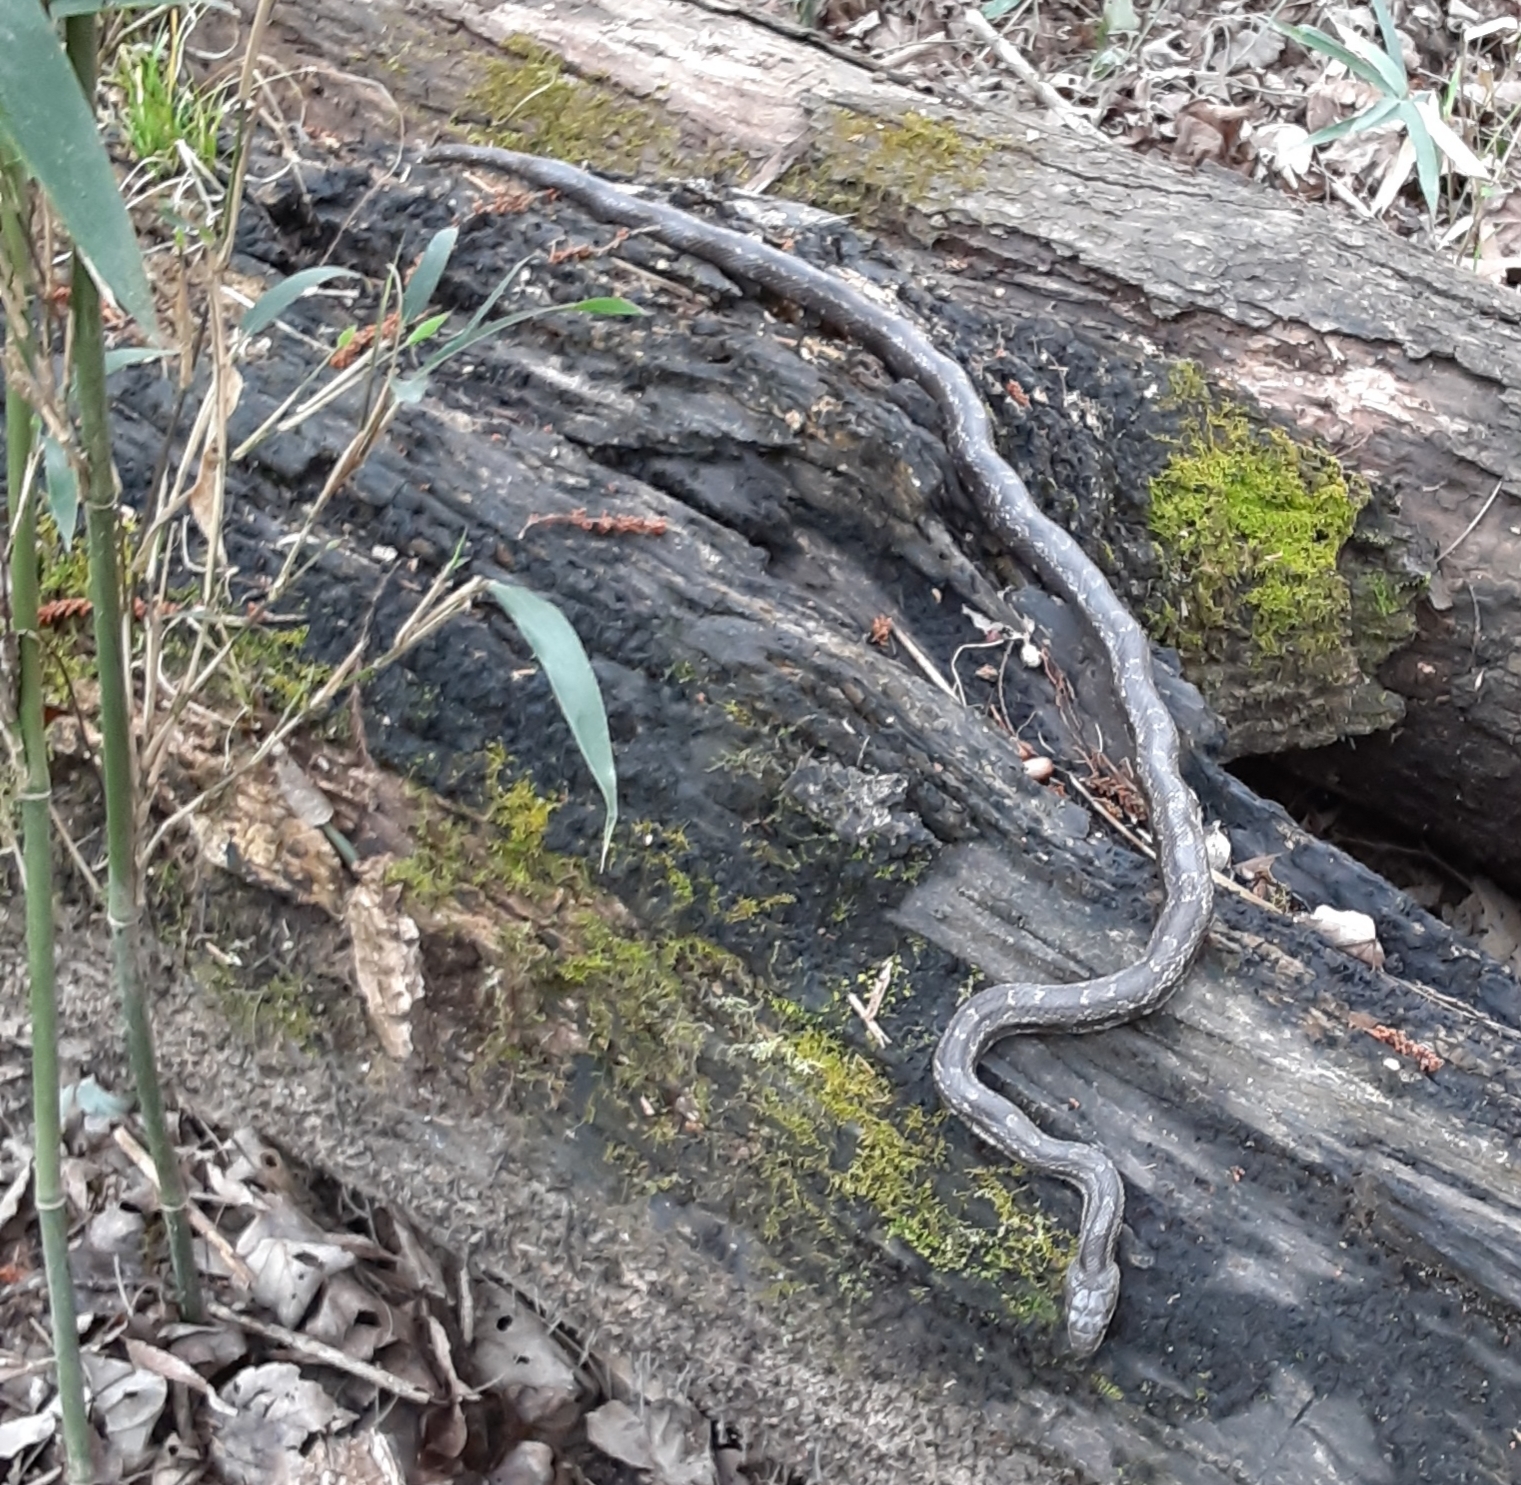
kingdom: Animalia
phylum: Chordata
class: Squamata
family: Colubridae
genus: Pantherophis
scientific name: Pantherophis alleghaniensis
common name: Eastern rat snake
